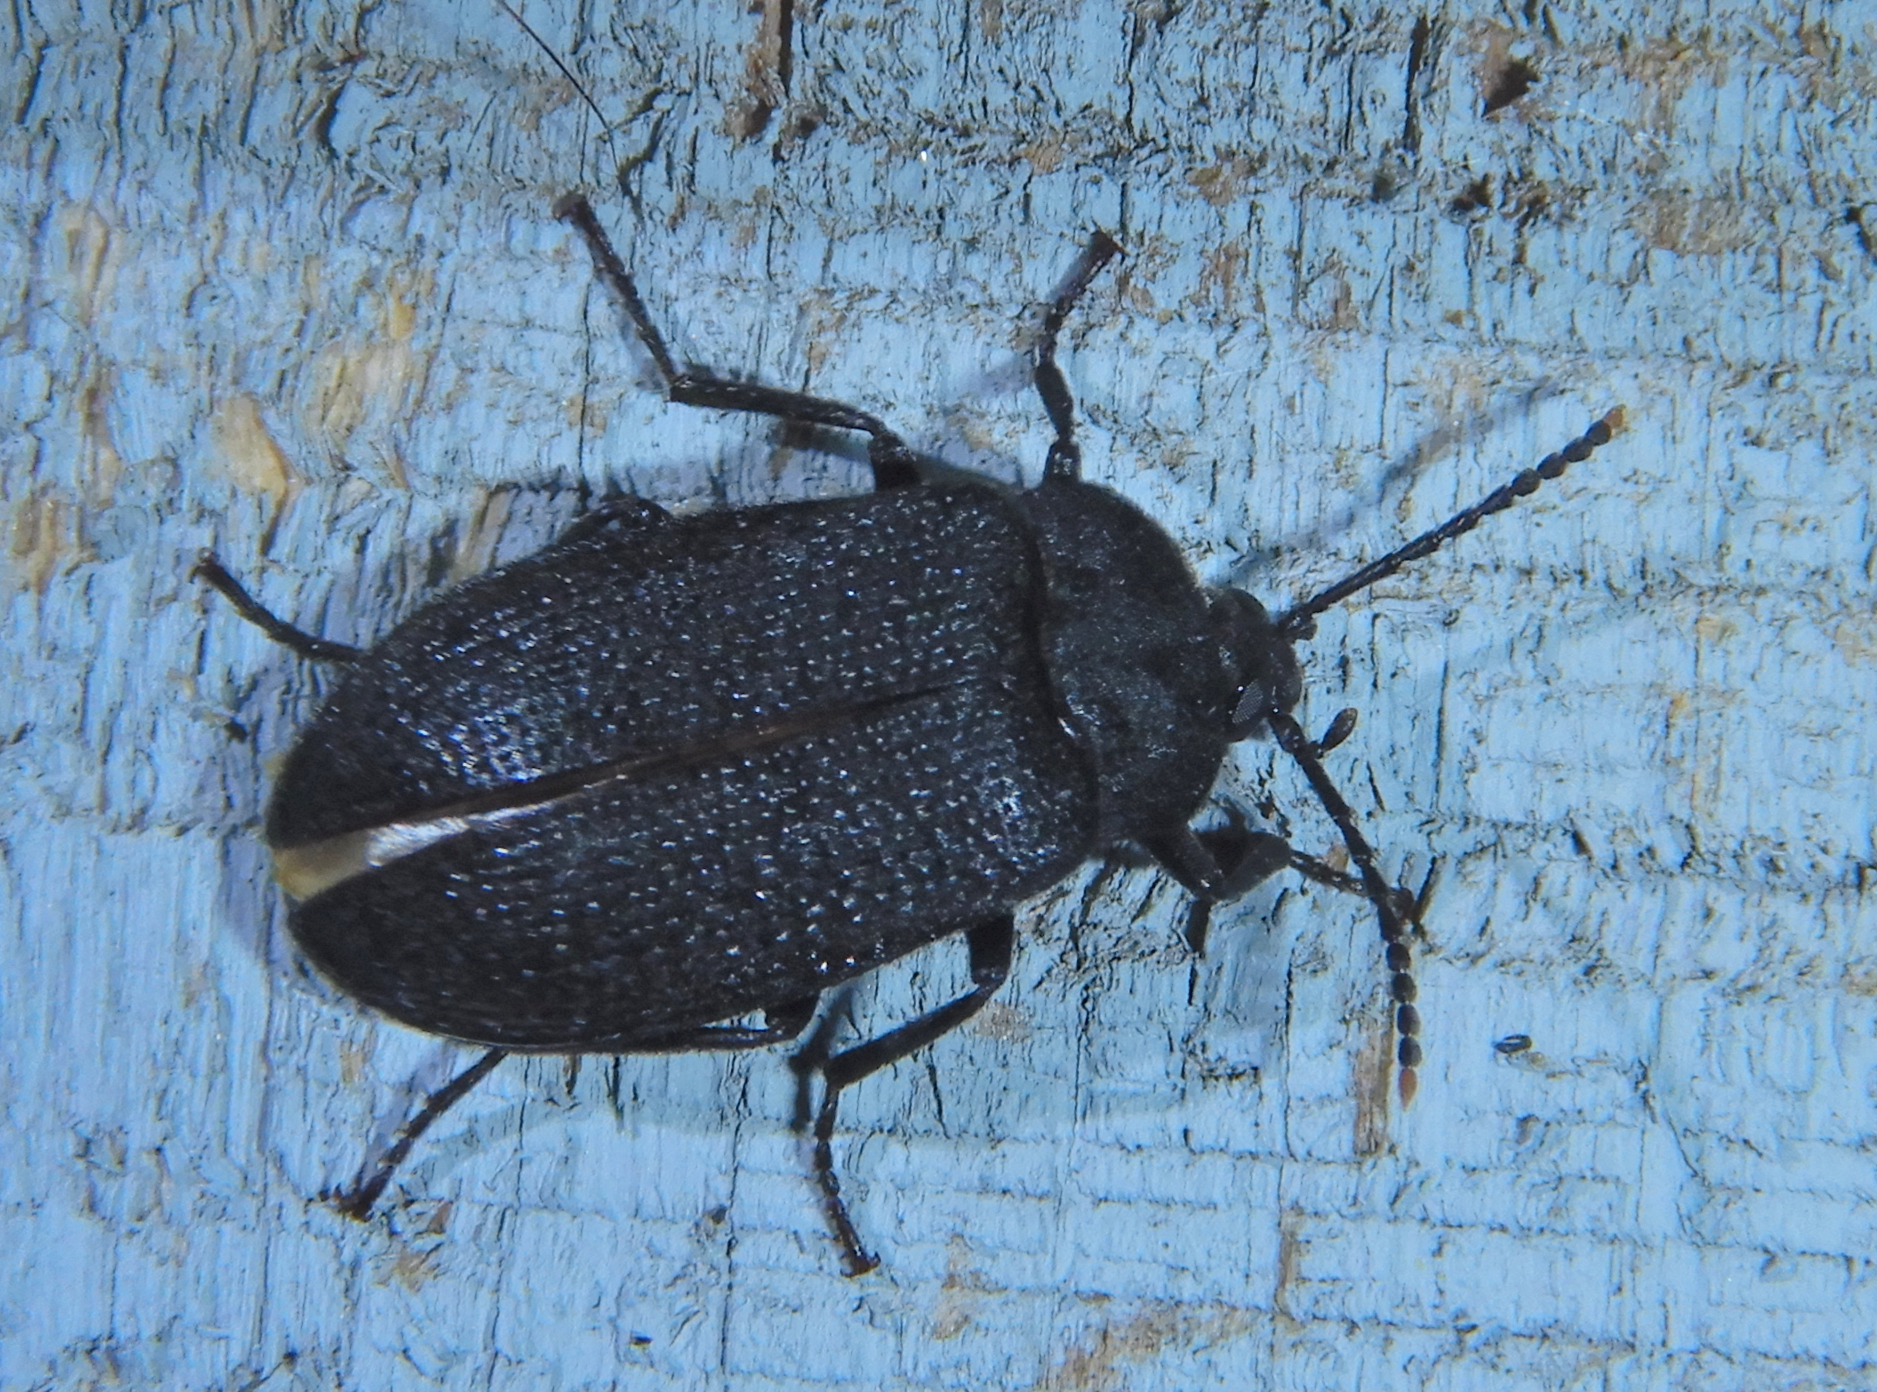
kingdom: Animalia
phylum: Arthropoda
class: Insecta
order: Coleoptera
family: Tetratomidae
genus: Penthe
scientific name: Penthe pimelia
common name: Velvety bark beetle
